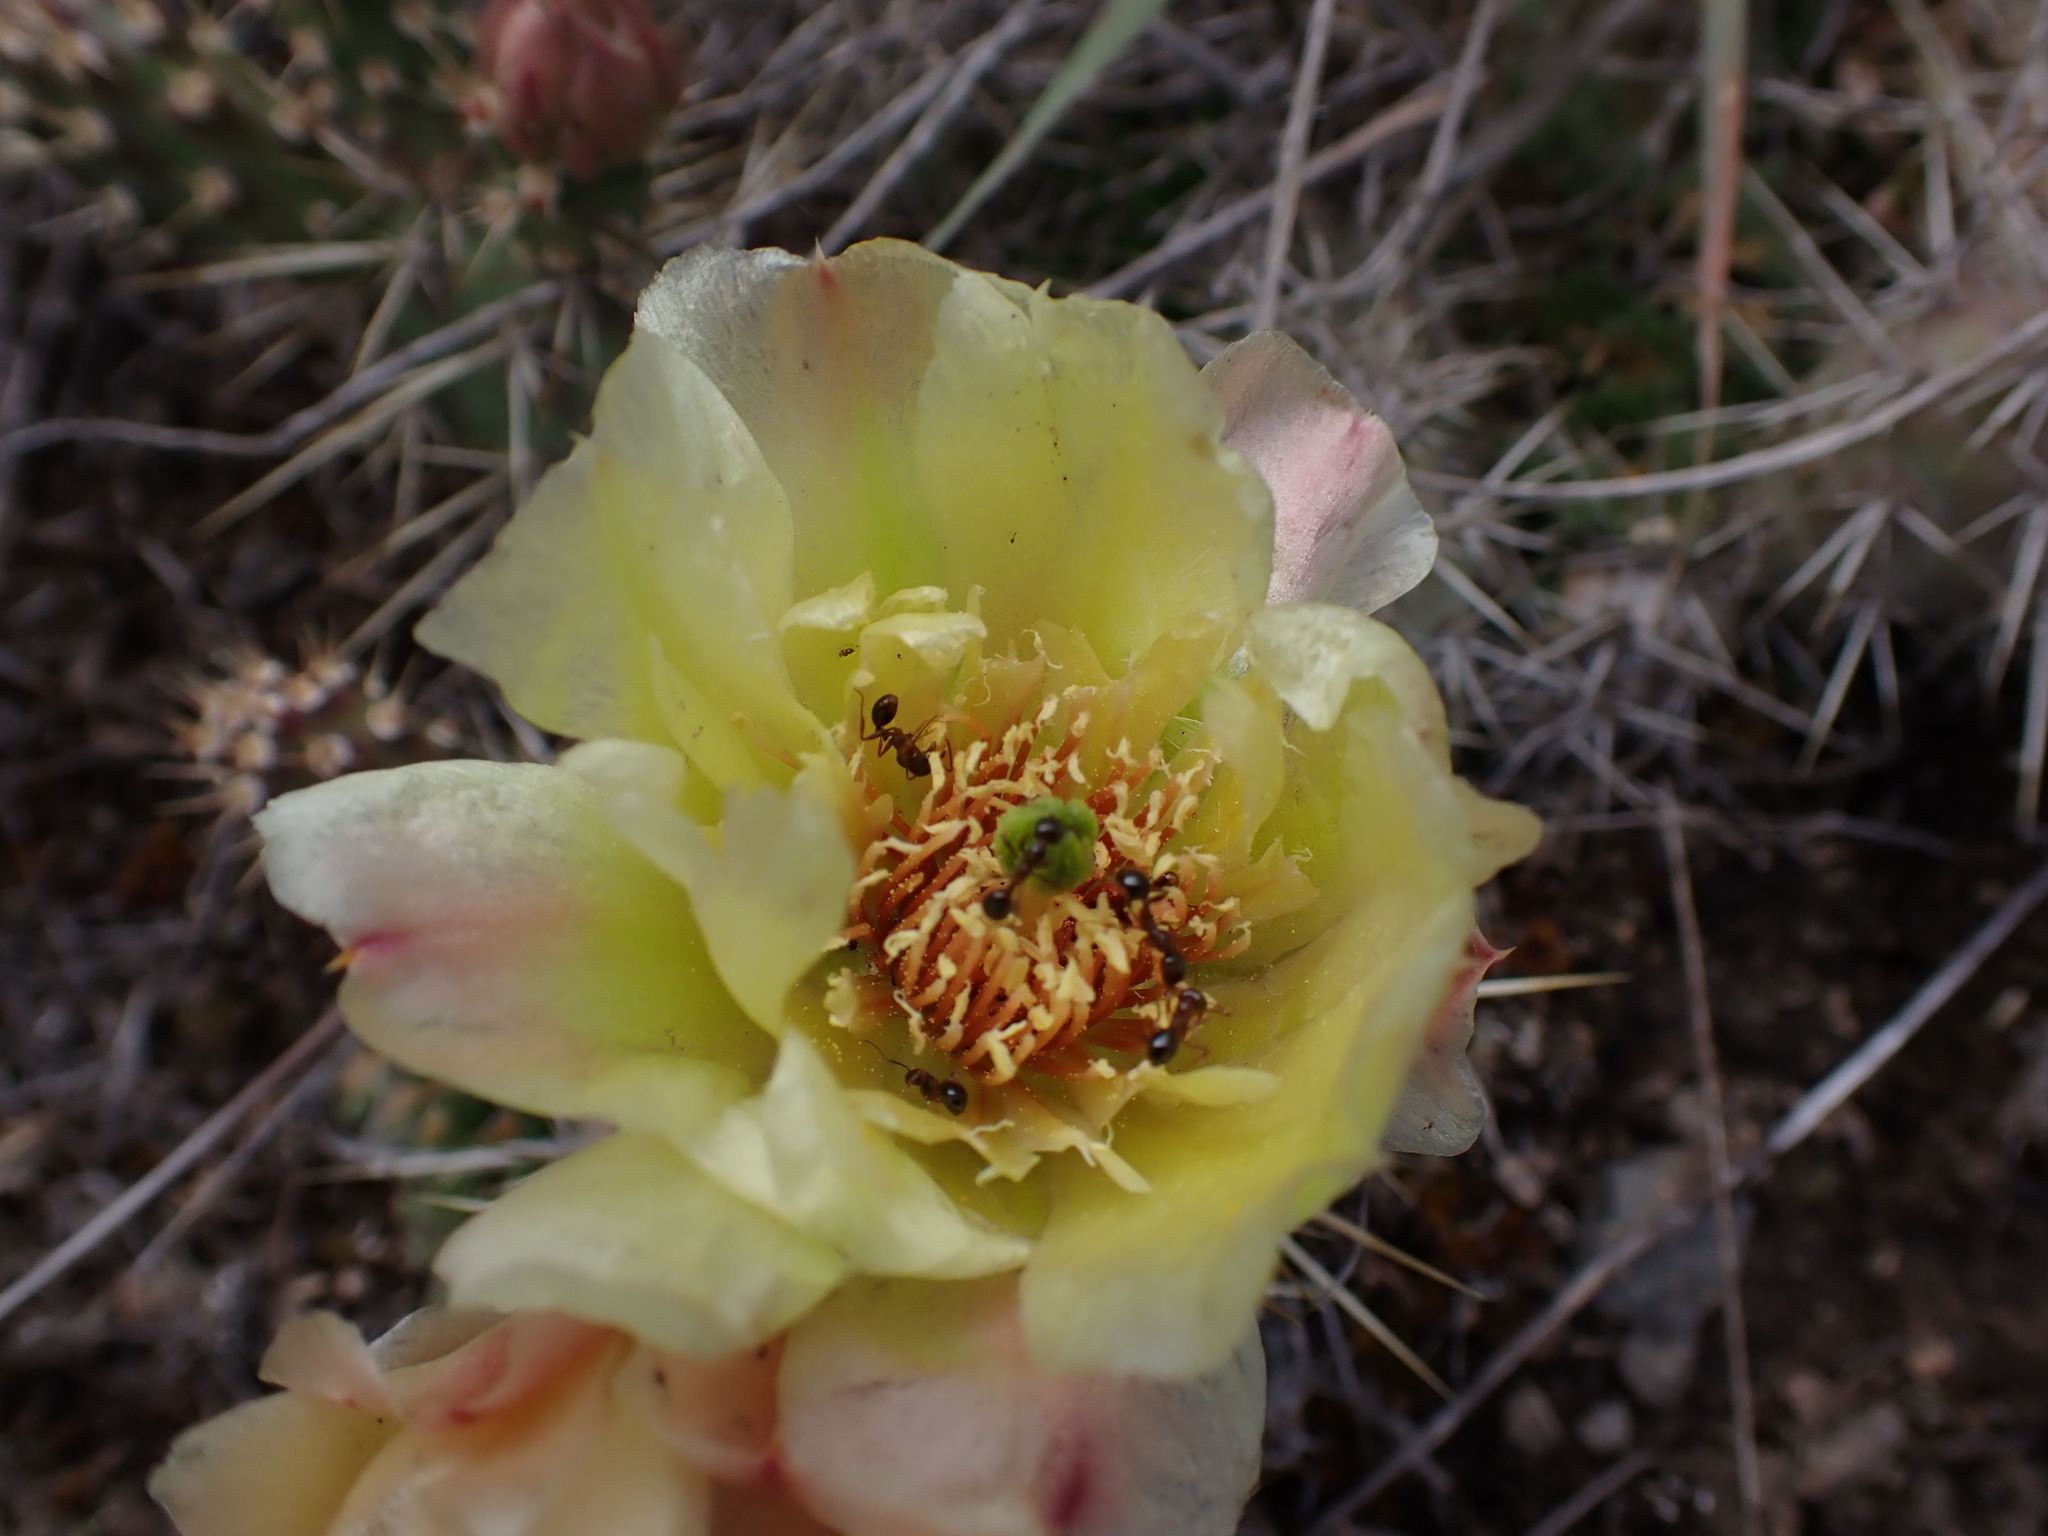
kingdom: Plantae
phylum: Tracheophyta
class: Magnoliopsida
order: Caryophyllales
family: Cactaceae
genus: Opuntia
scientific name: Opuntia fragilis
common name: Brittle cactus
